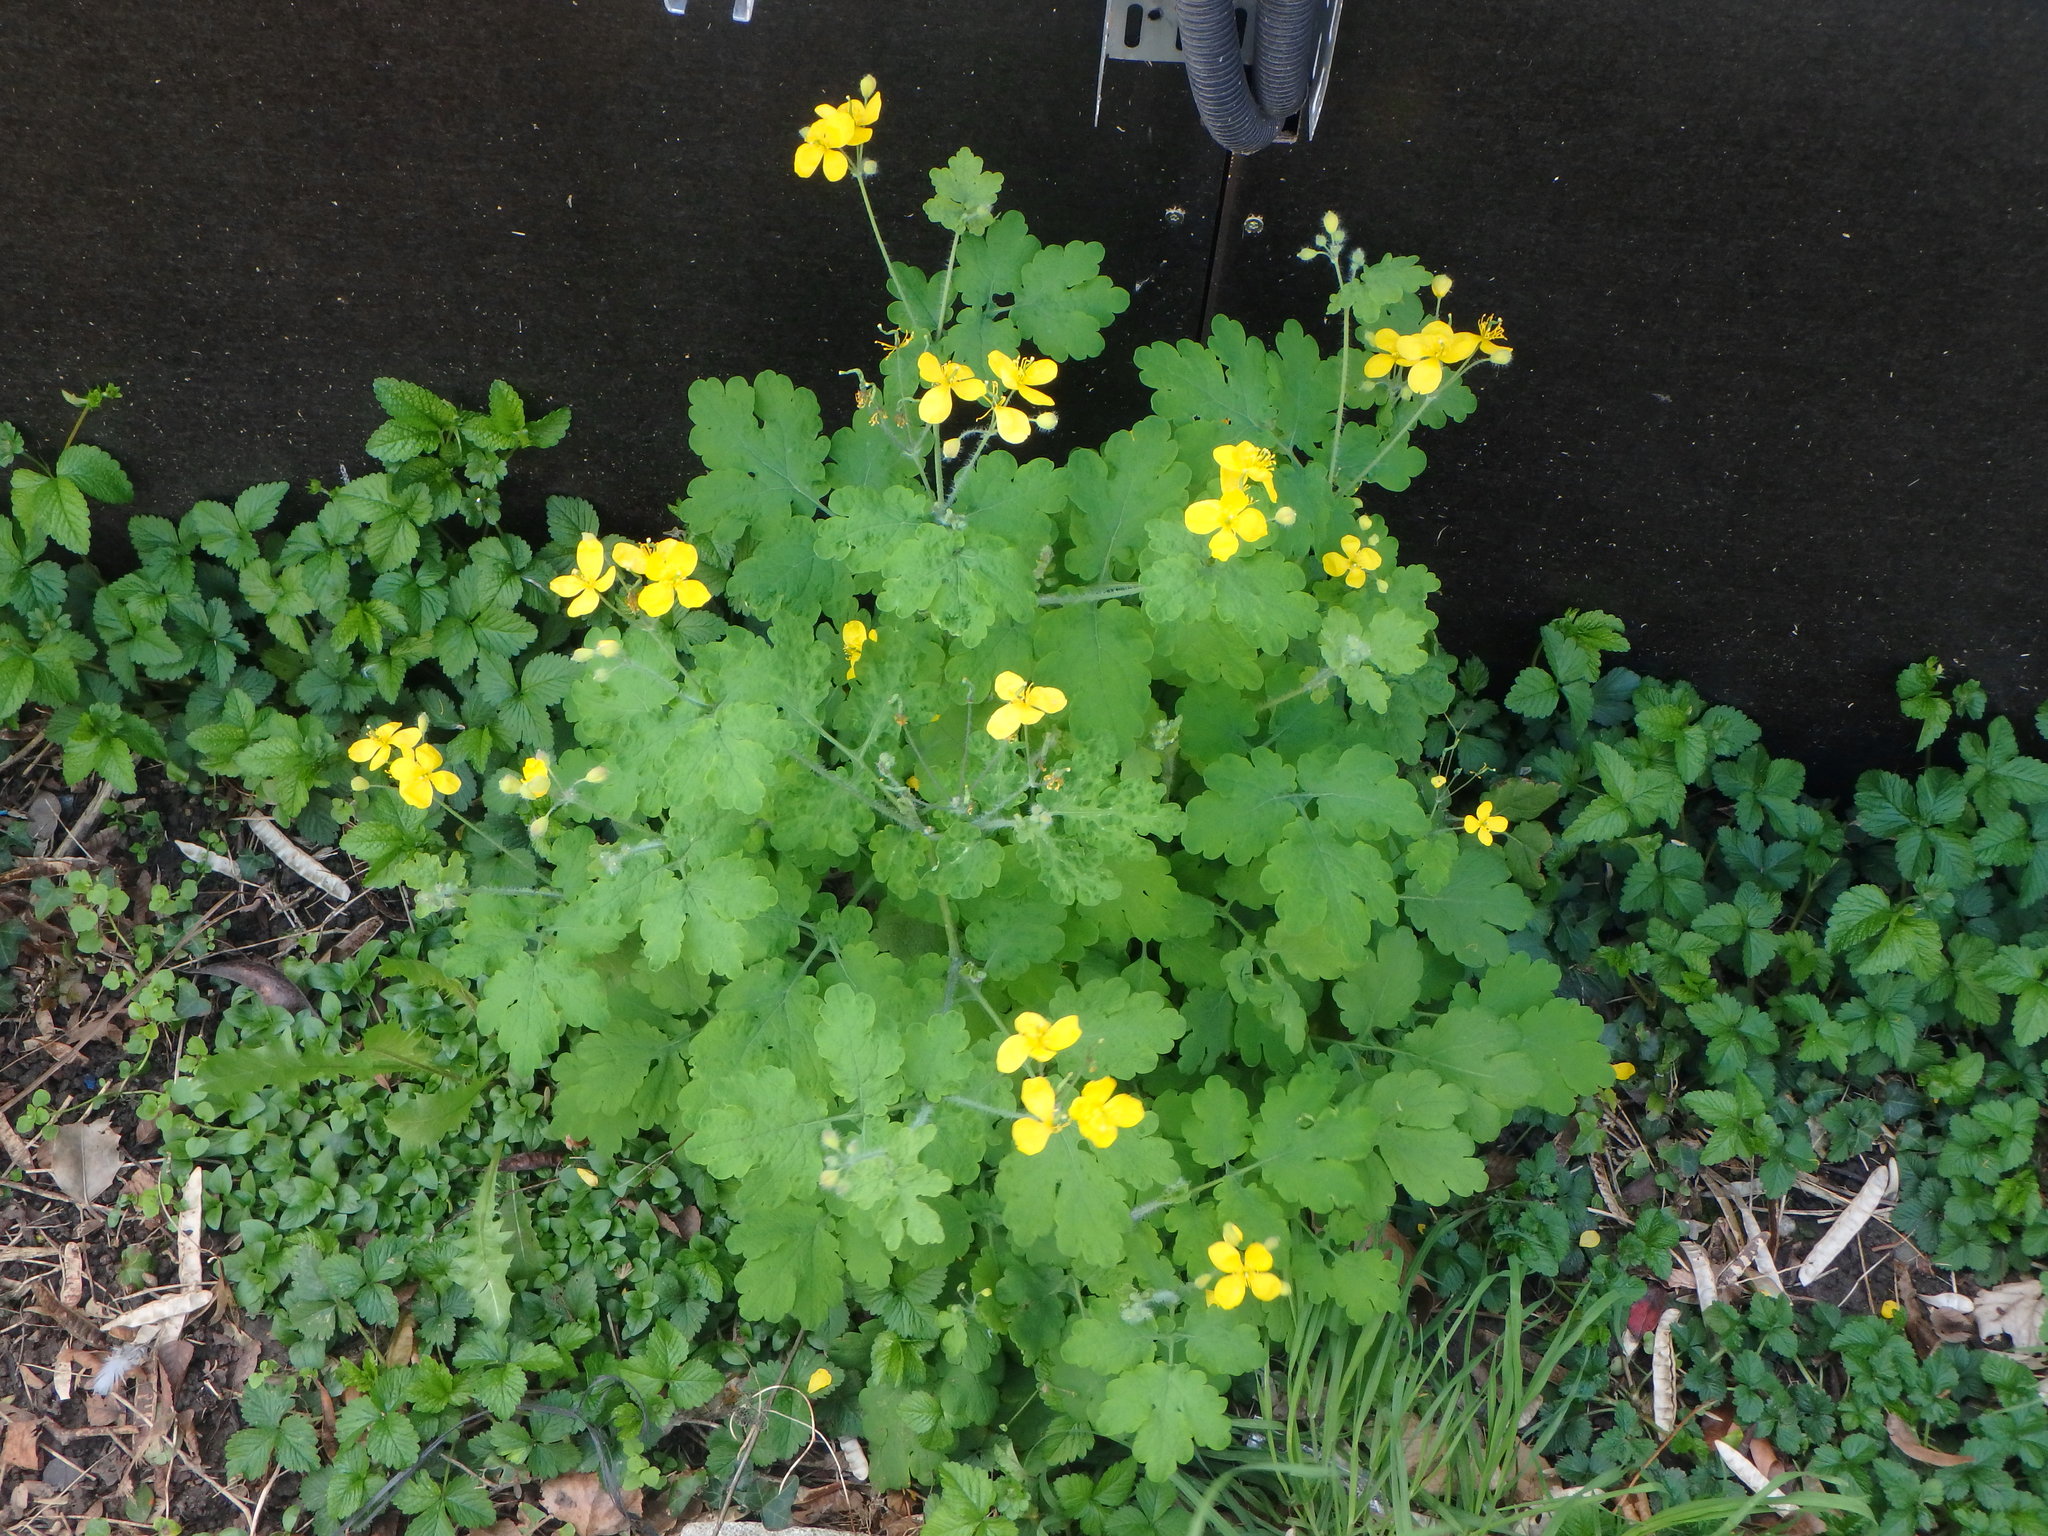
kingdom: Plantae
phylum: Tracheophyta
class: Magnoliopsida
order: Ranunculales
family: Papaveraceae
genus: Chelidonium
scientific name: Chelidonium majus
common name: Greater celandine
